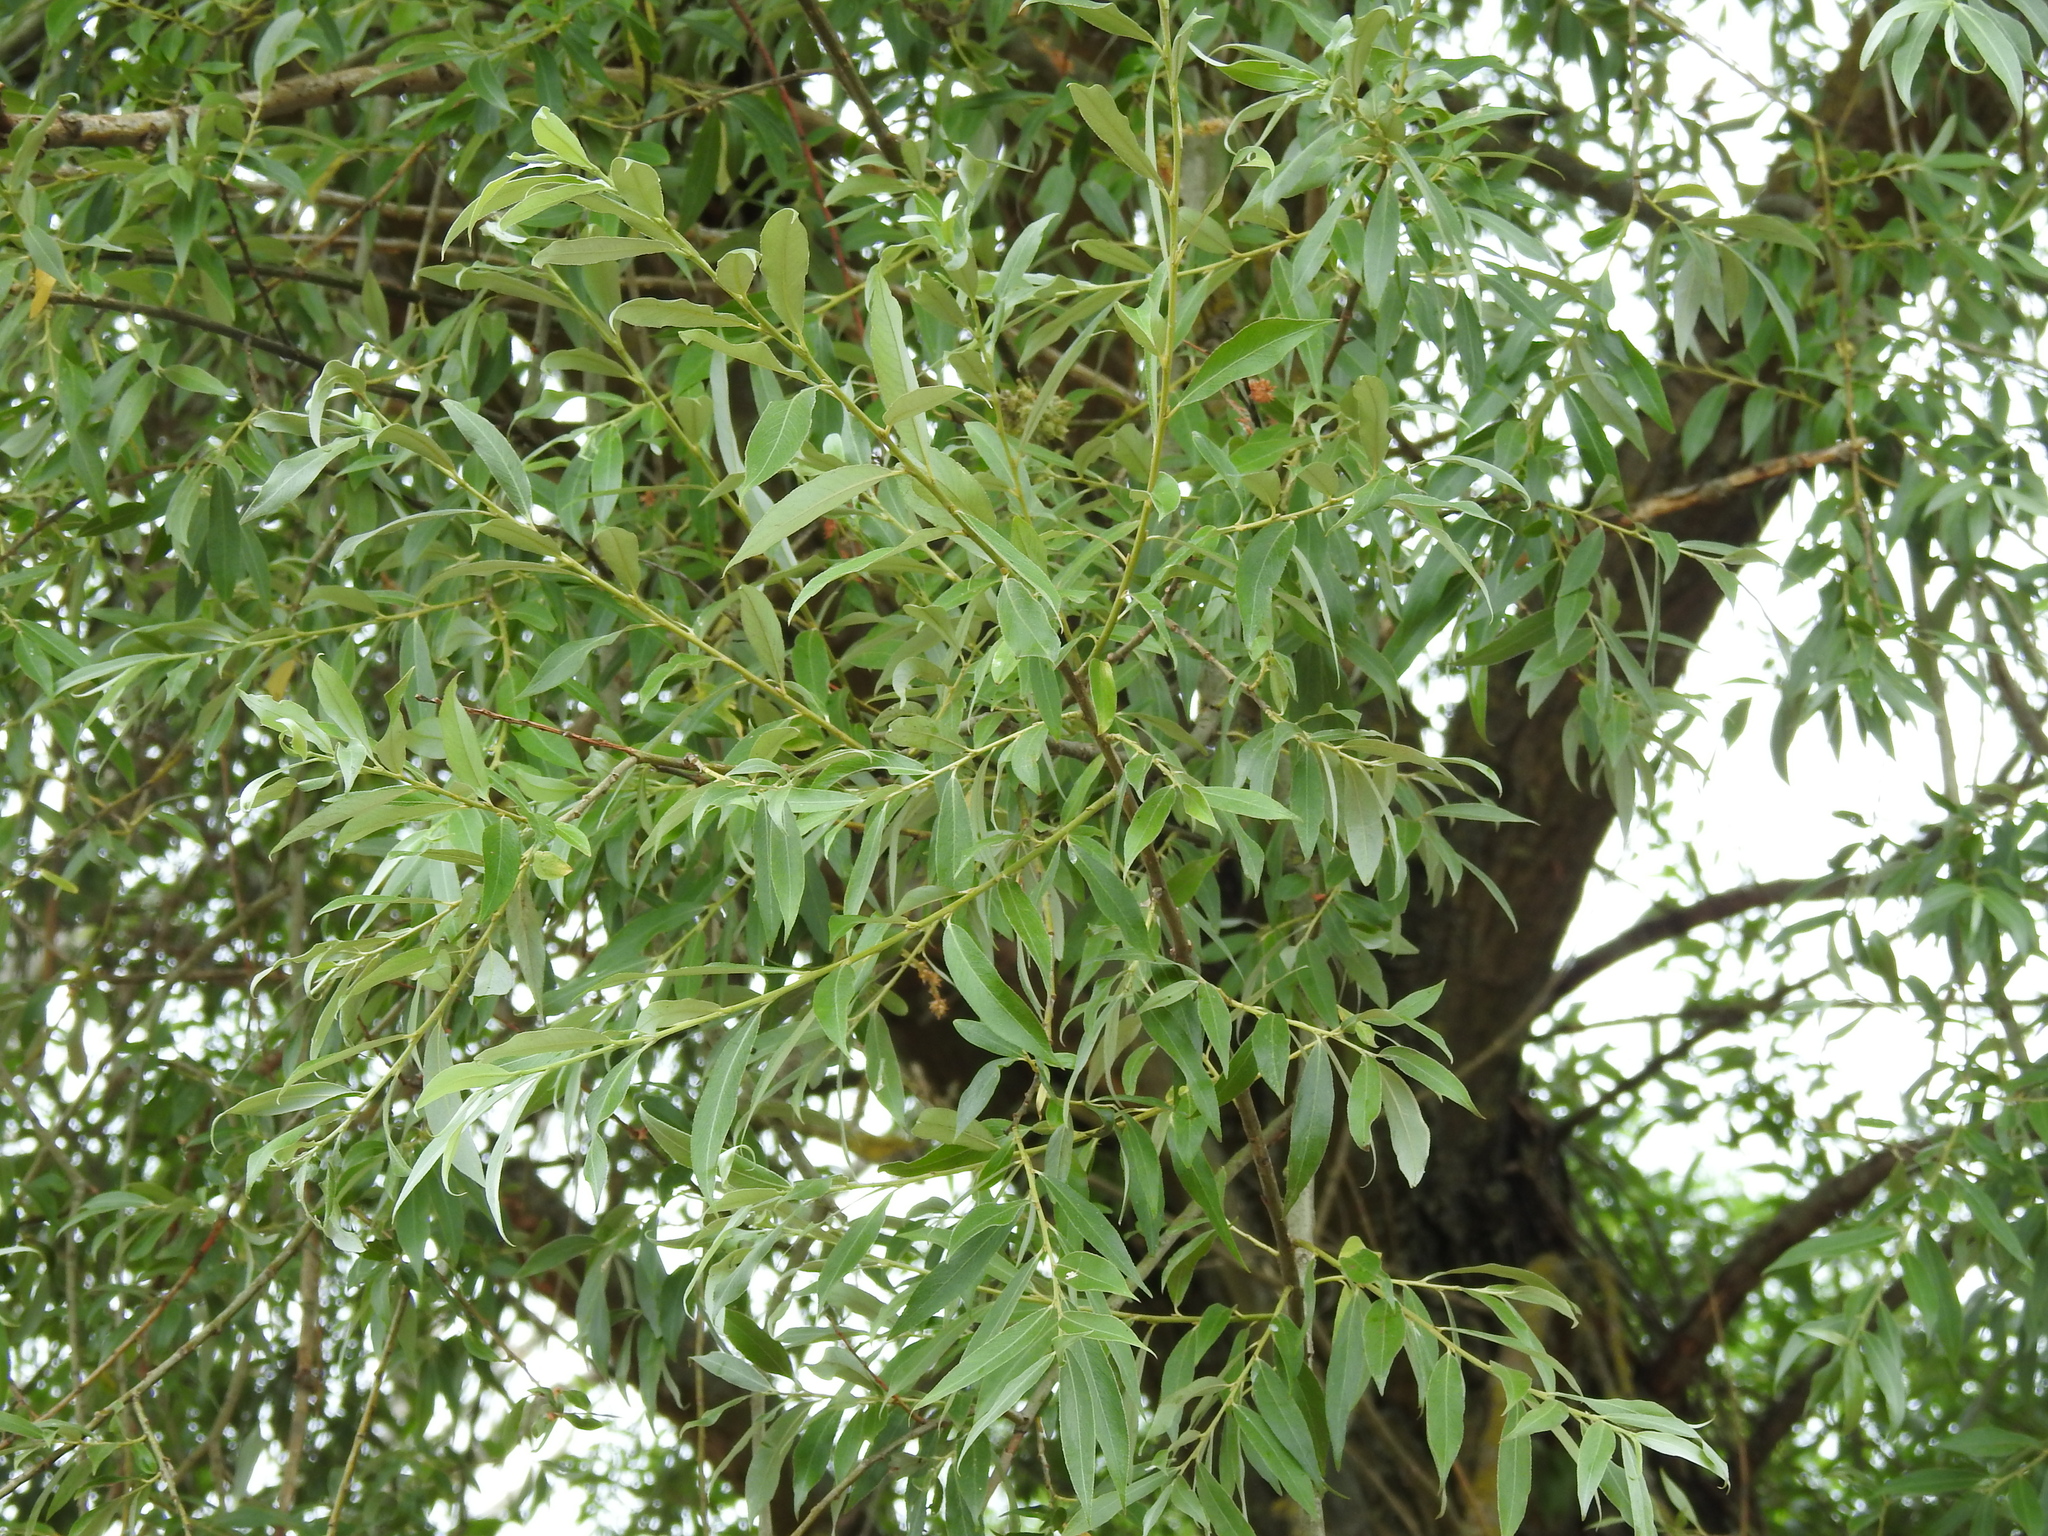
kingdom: Plantae
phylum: Tracheophyta
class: Magnoliopsida
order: Malpighiales
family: Salicaceae
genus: Salix
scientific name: Salix alba
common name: White willow
